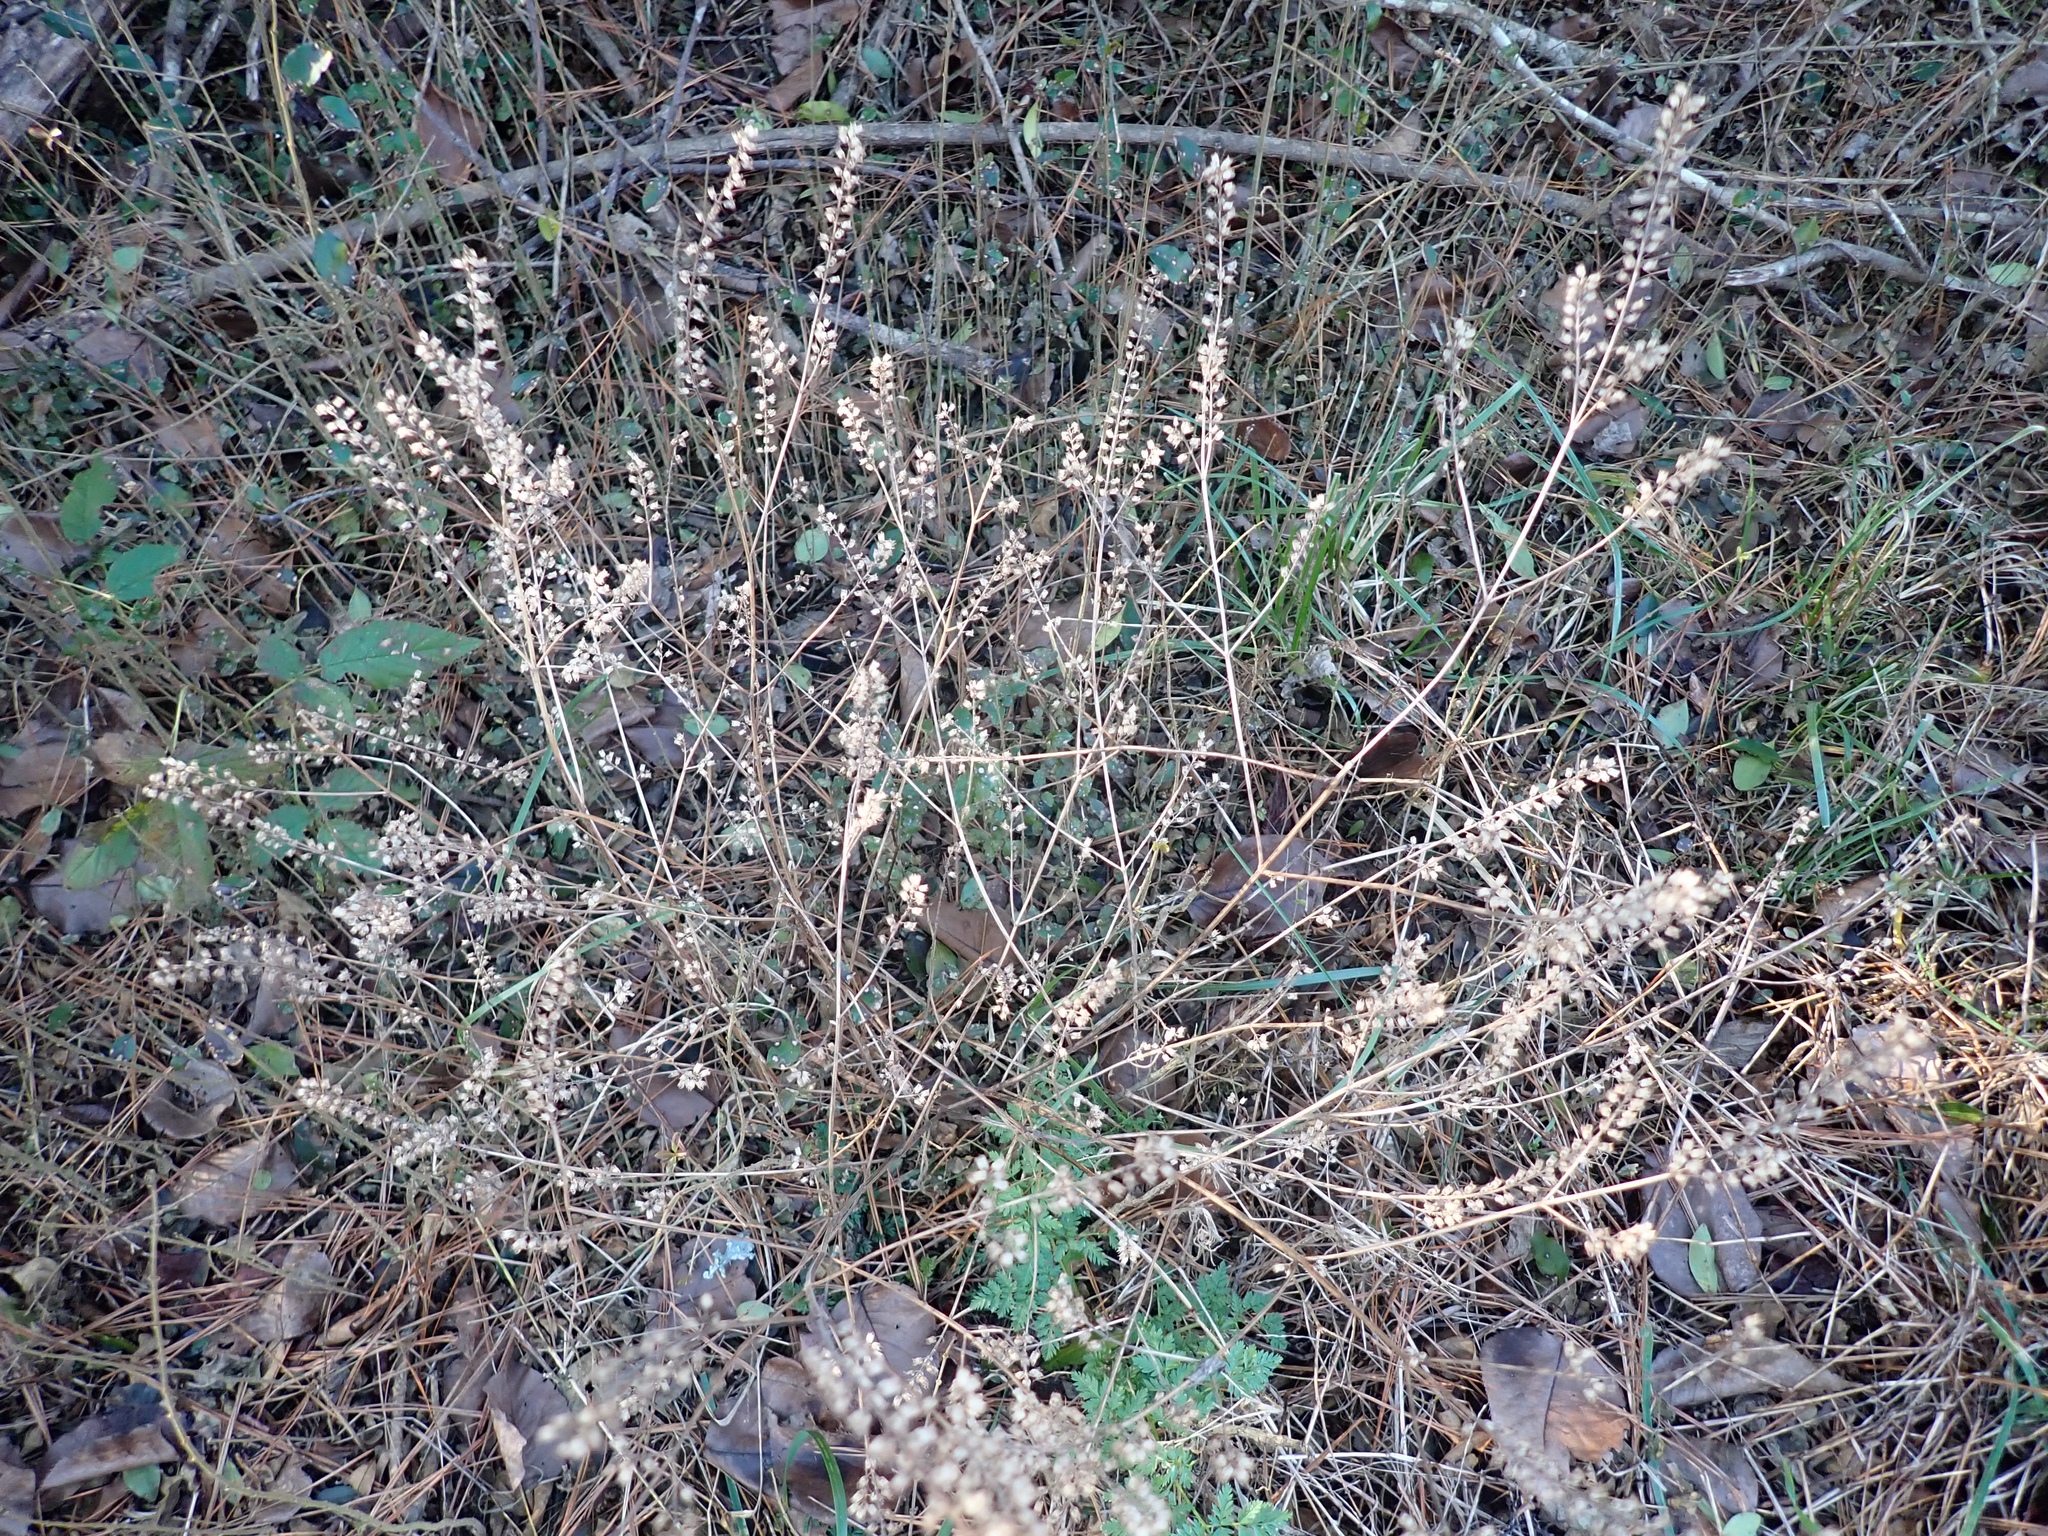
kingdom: Plantae
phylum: Tracheophyta
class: Magnoliopsida
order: Lamiales
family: Lamiaceae
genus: Perilla
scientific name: Perilla frutescens
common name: Perilla
